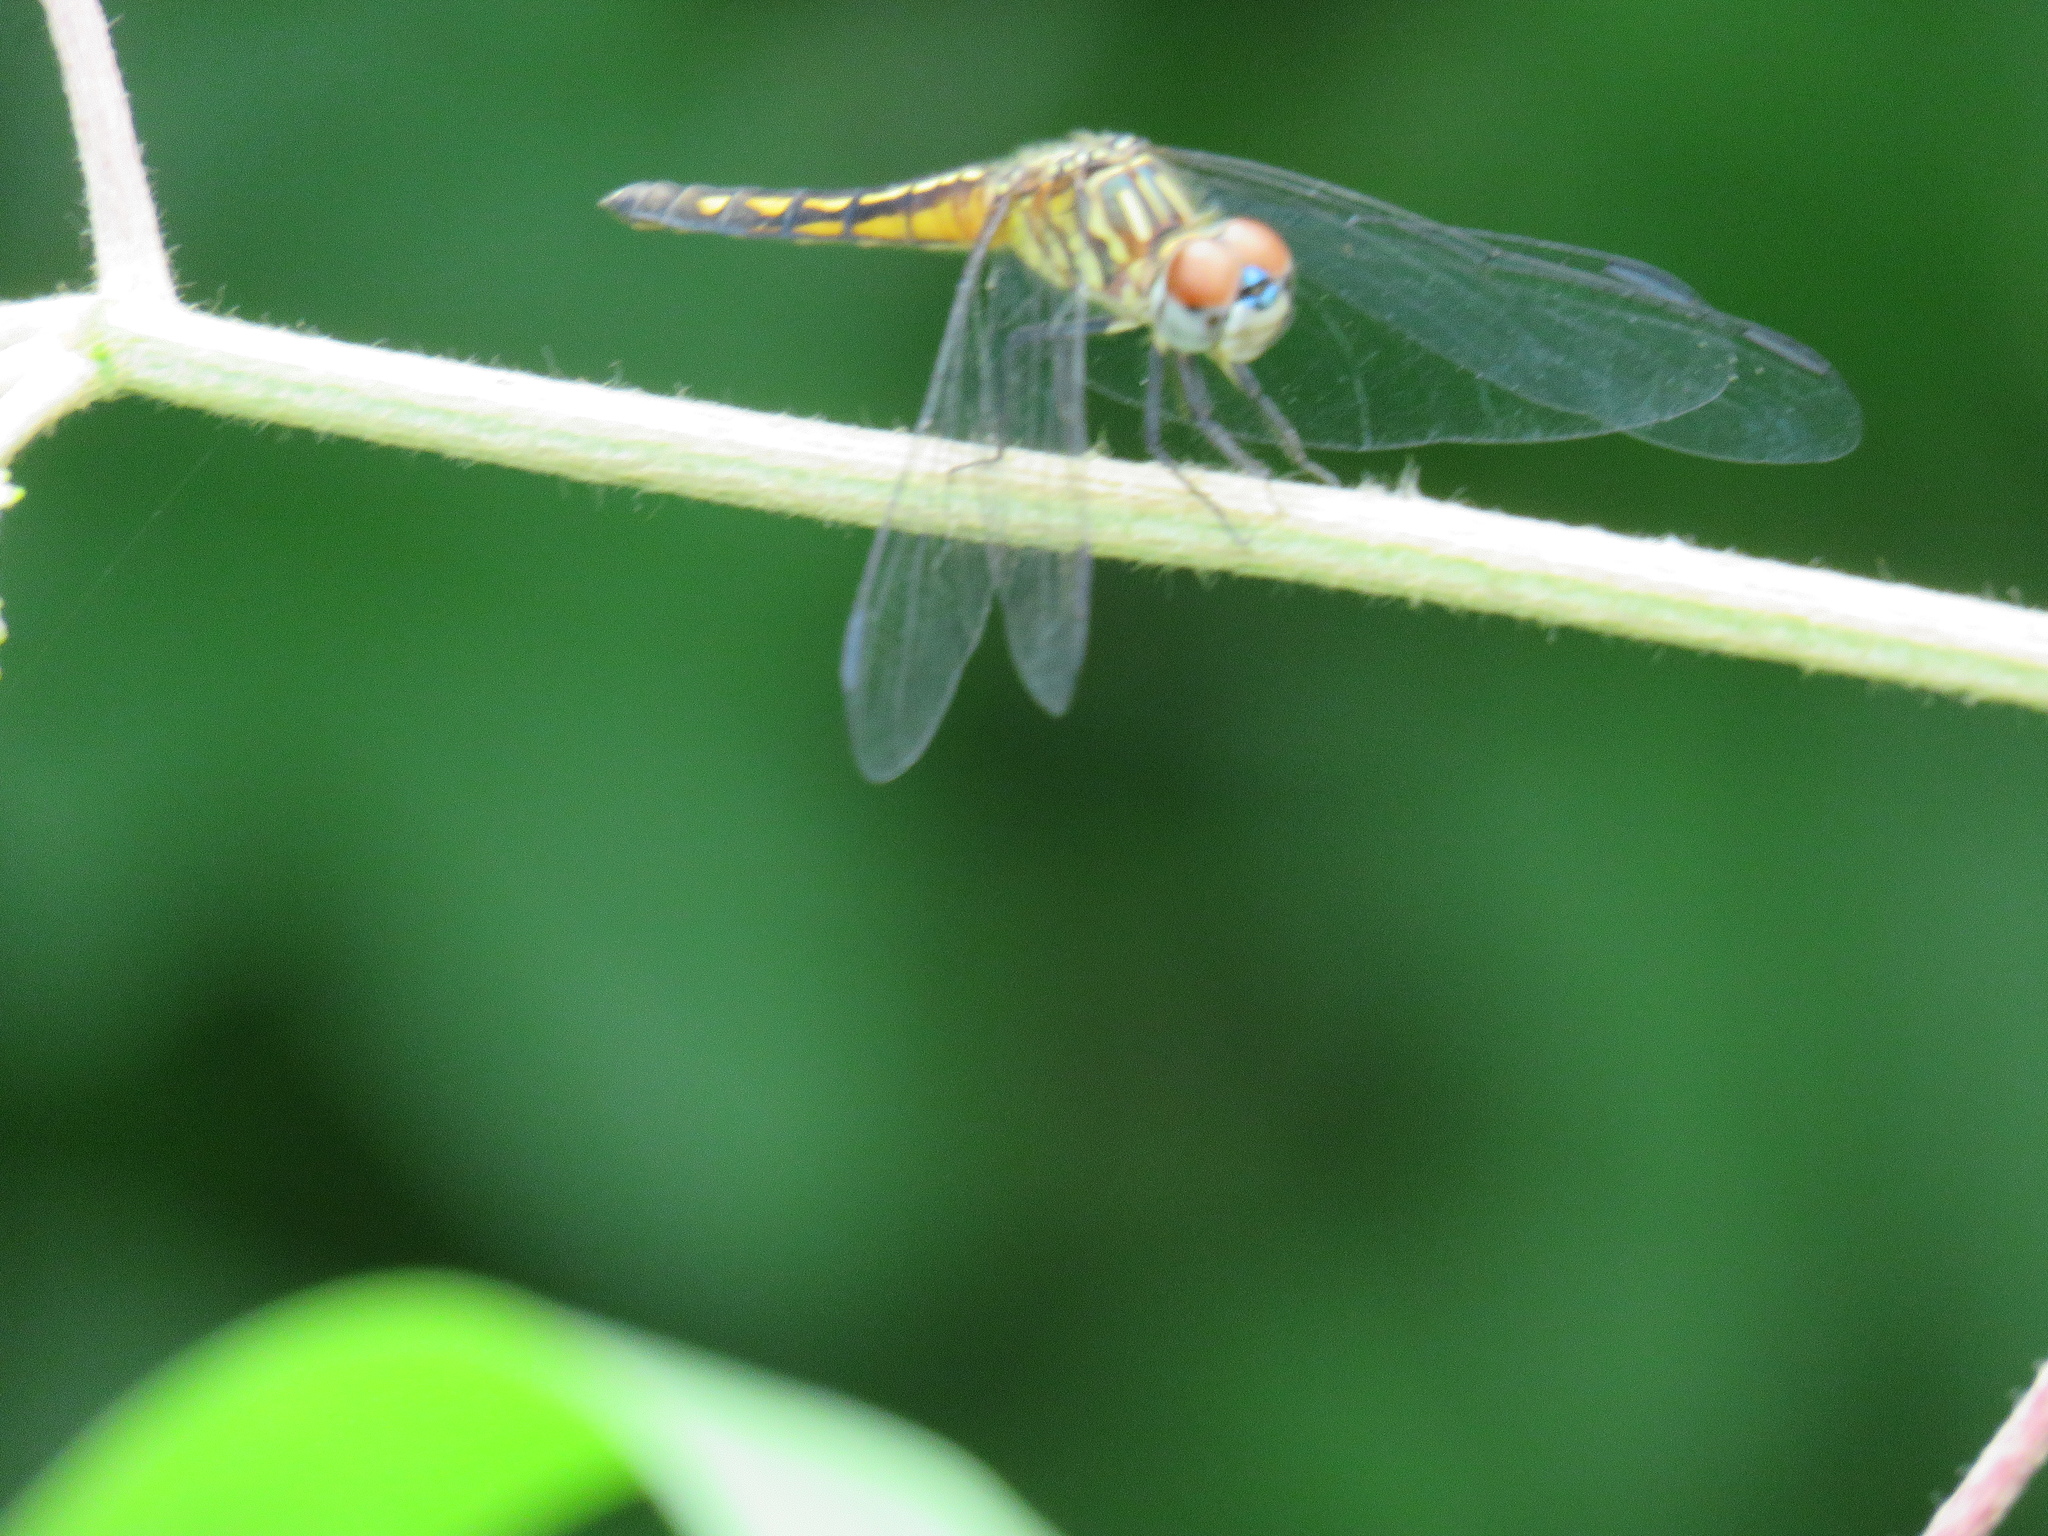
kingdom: Animalia
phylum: Arthropoda
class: Insecta
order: Odonata
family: Libellulidae
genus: Pachydiplax
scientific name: Pachydiplax longipennis
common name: Blue dasher
